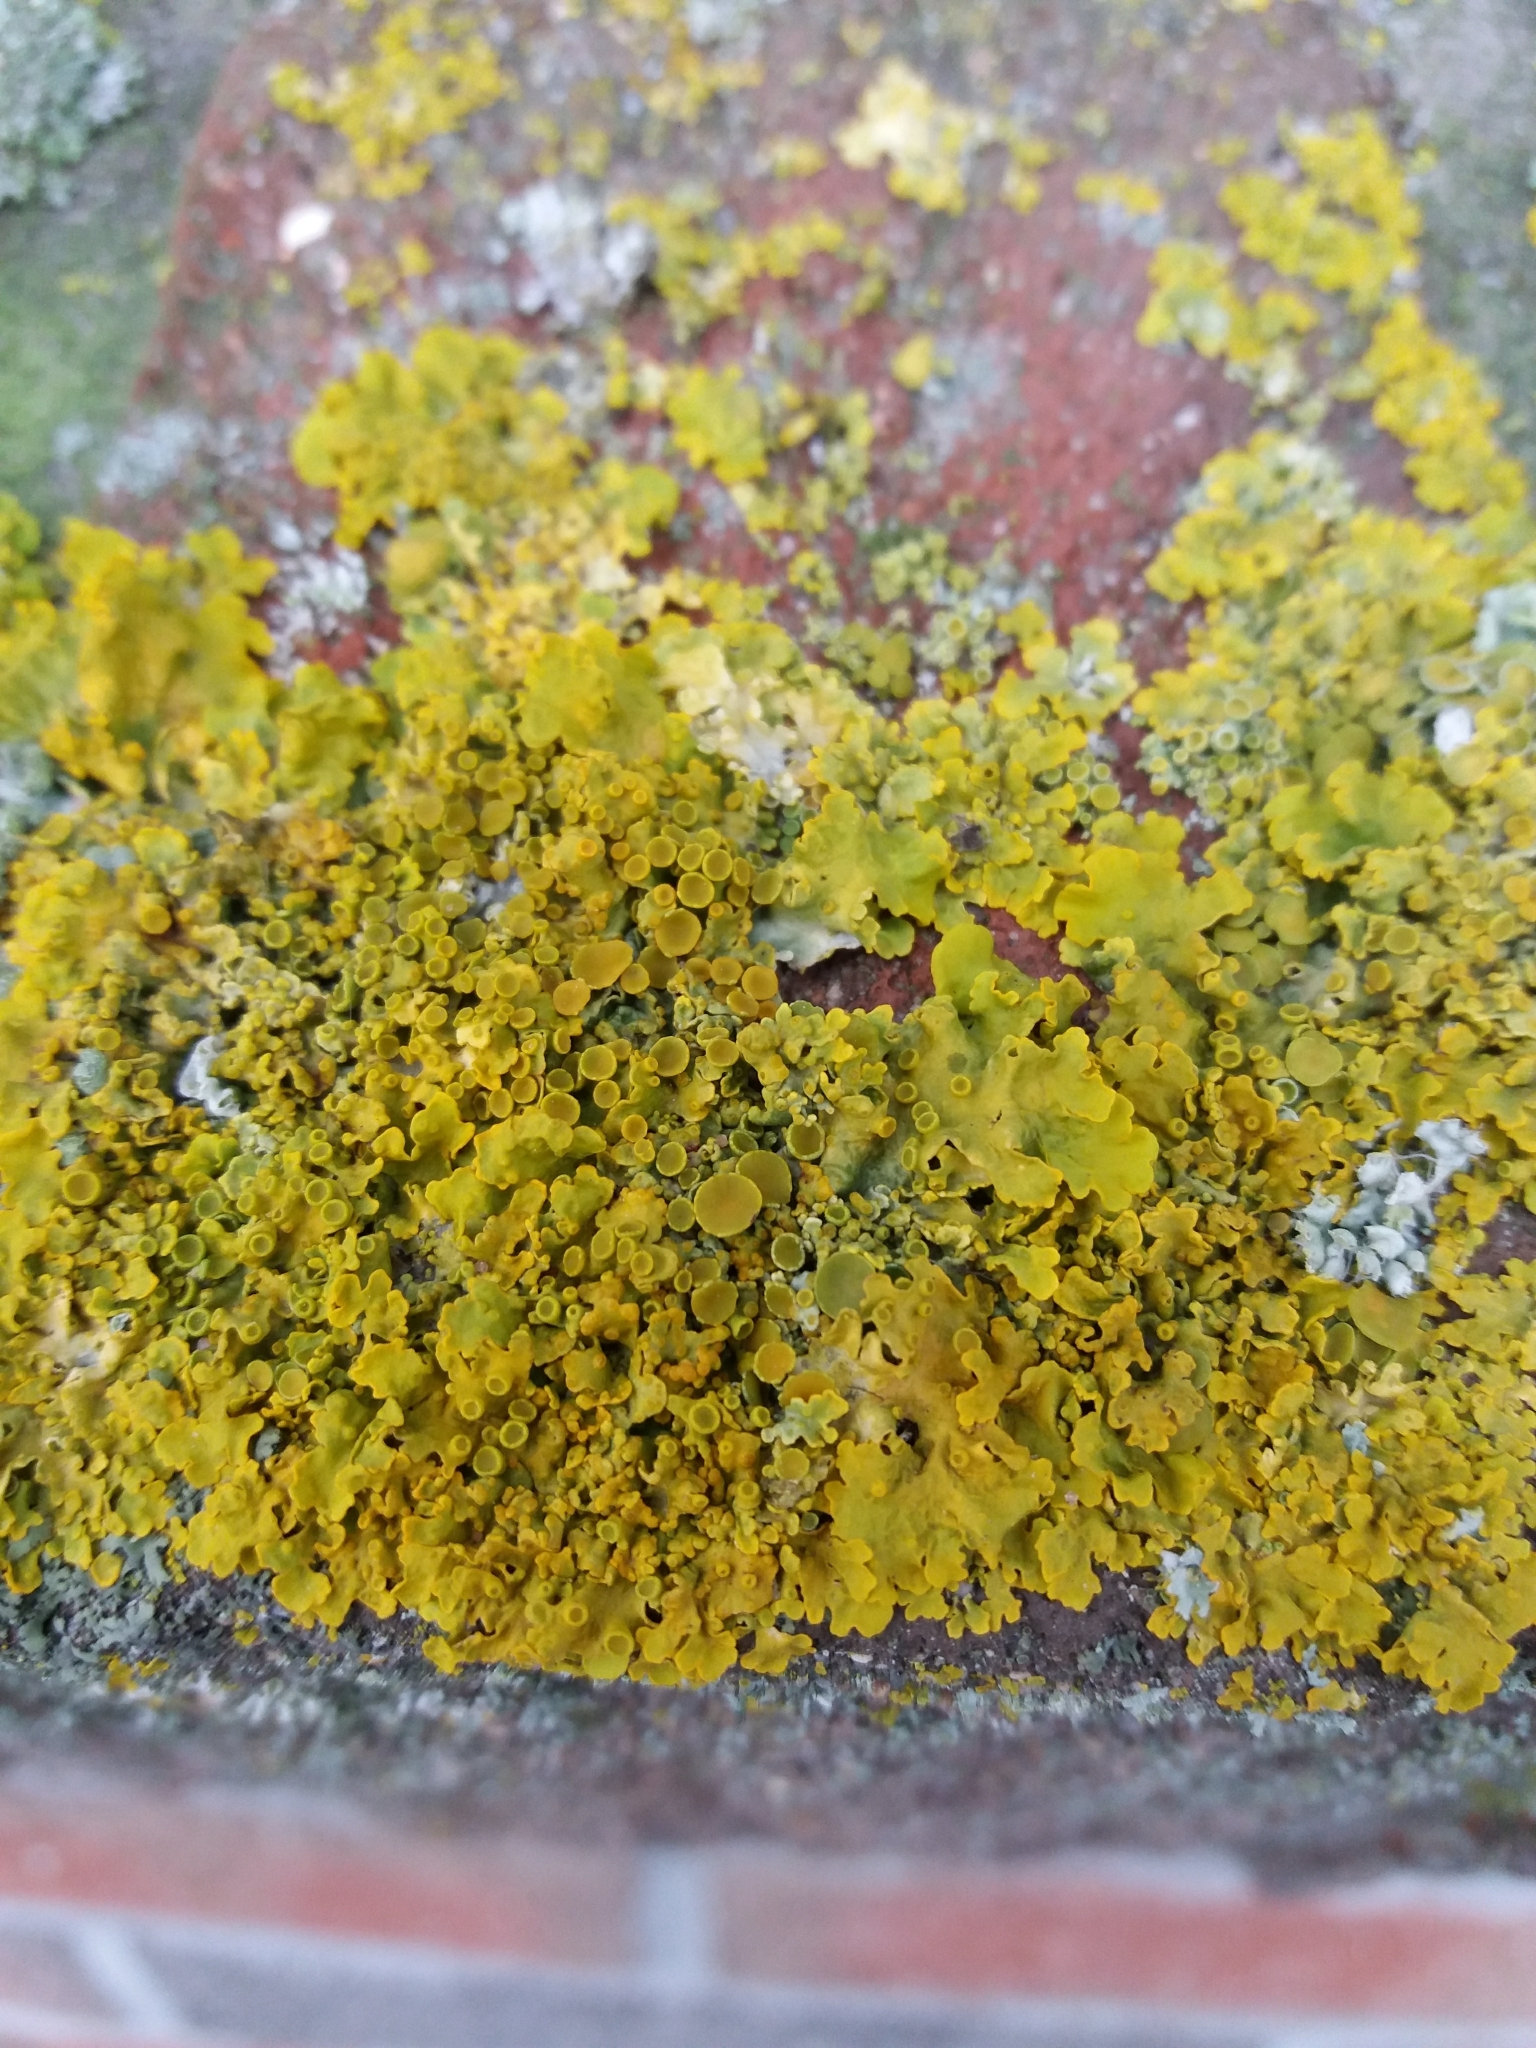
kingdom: Fungi
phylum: Ascomycota
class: Lecanoromycetes
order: Teloschistales
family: Teloschistaceae
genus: Xanthoria
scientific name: Xanthoria parietina
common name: Common orange lichen
